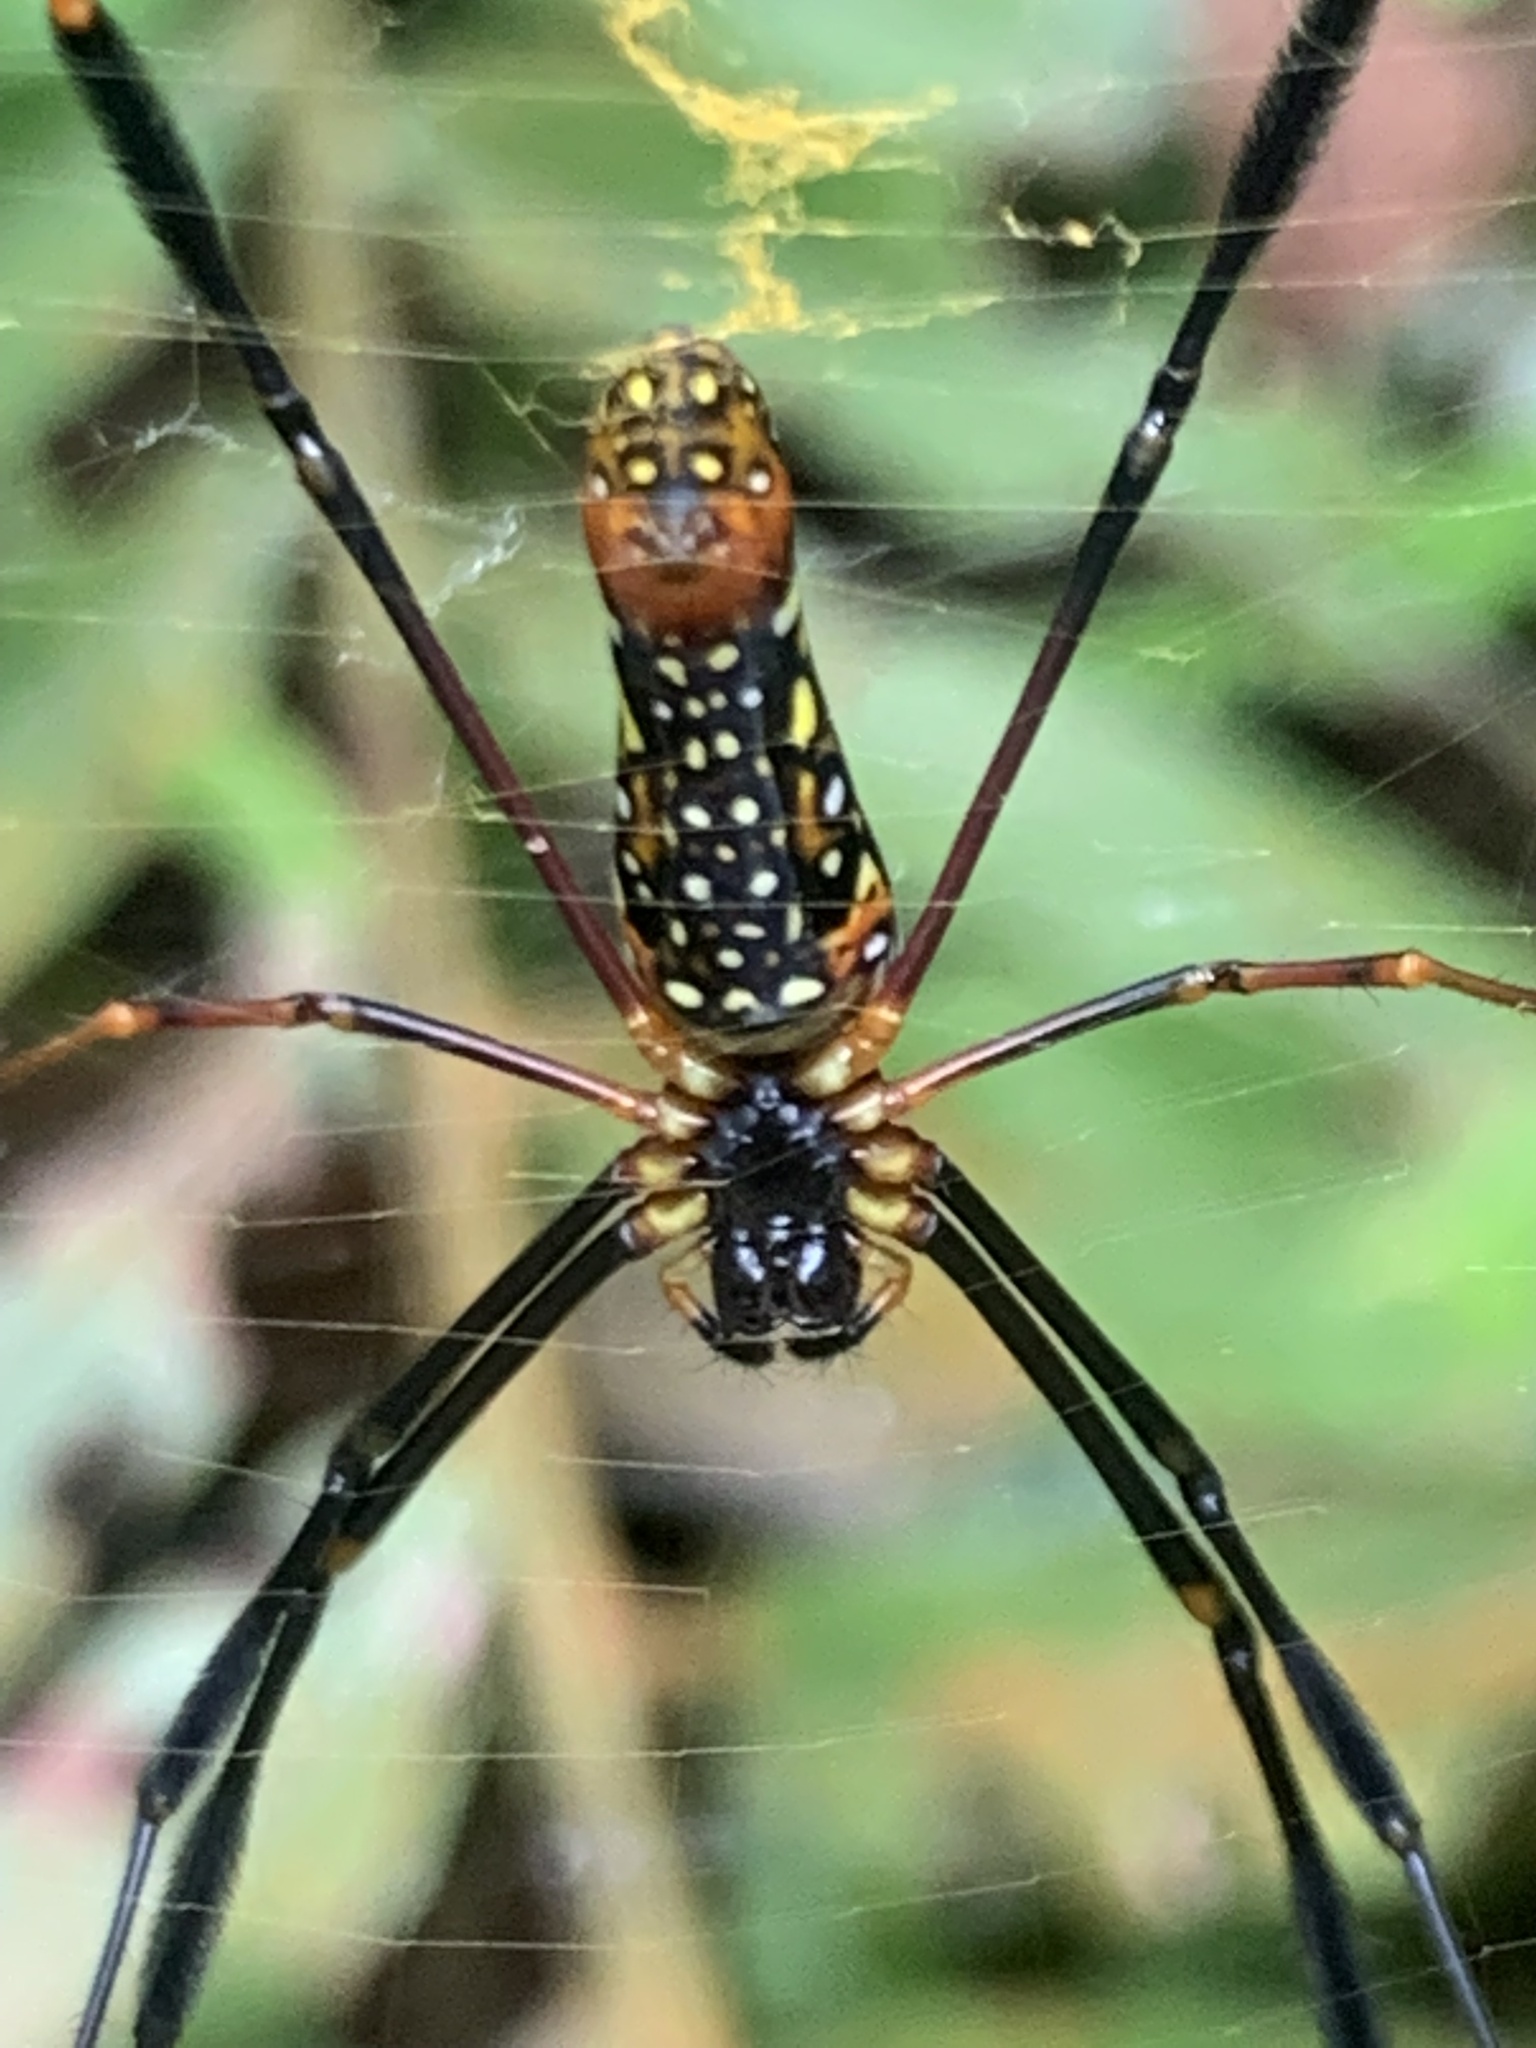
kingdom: Animalia
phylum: Arthropoda
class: Arachnida
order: Araneae
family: Araneidae
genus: Nephila
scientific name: Nephila pilipes
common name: Giant golden orb weaver
